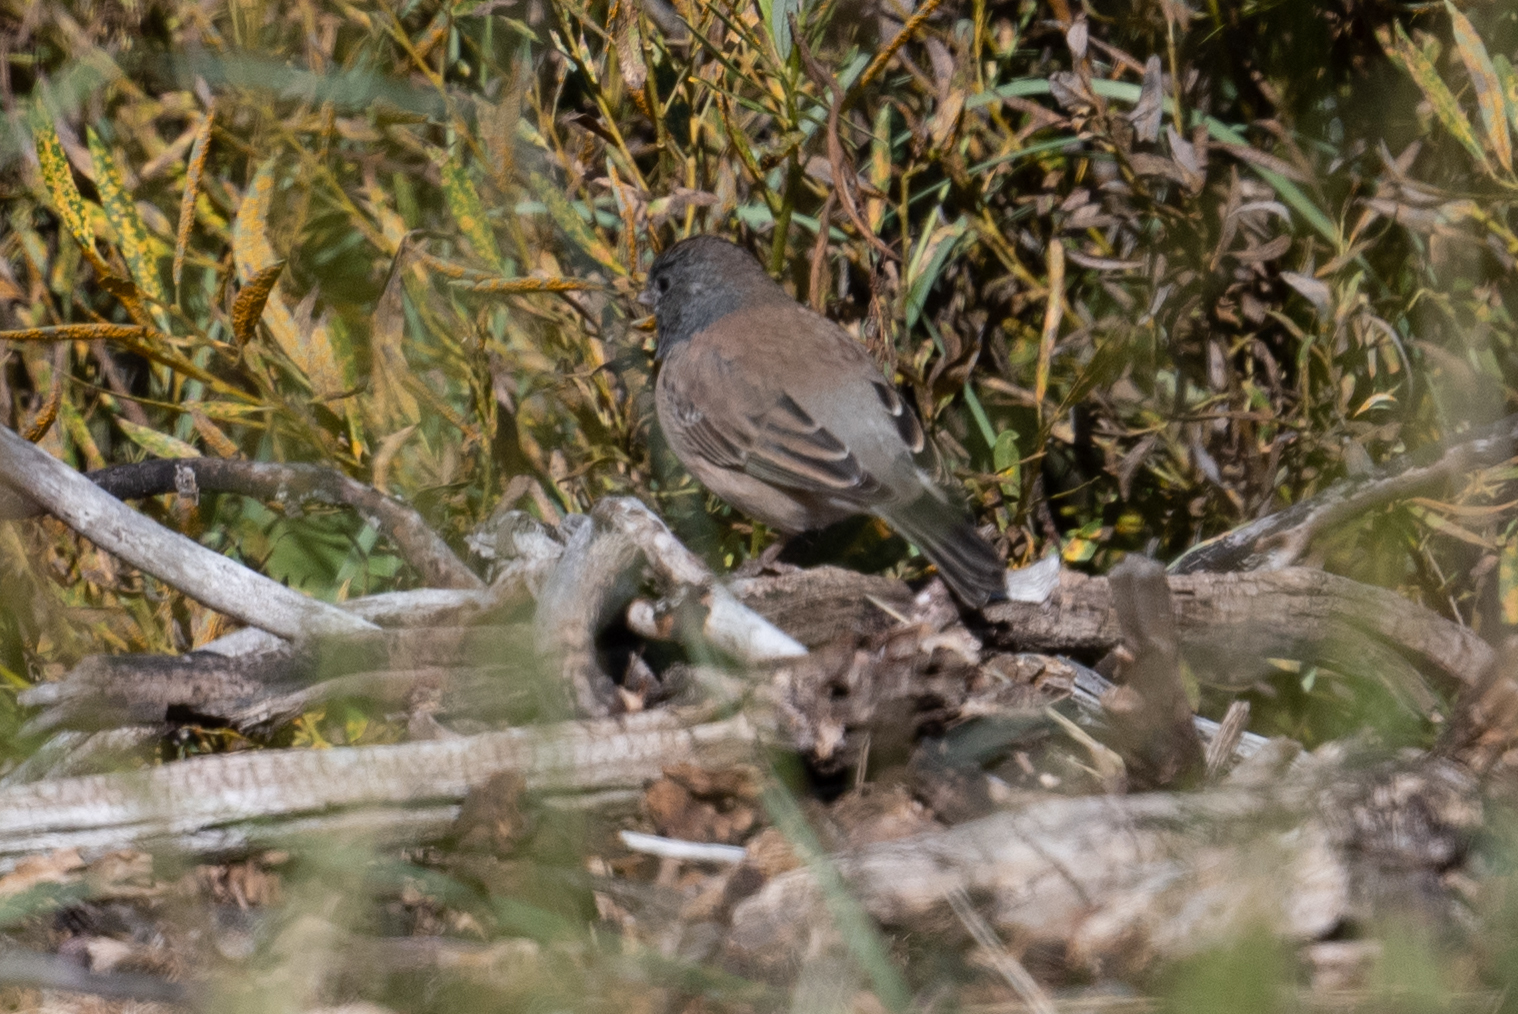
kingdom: Animalia
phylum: Chordata
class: Aves
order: Passeriformes
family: Passerellidae
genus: Junco
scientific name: Junco hyemalis
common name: Dark-eyed junco
